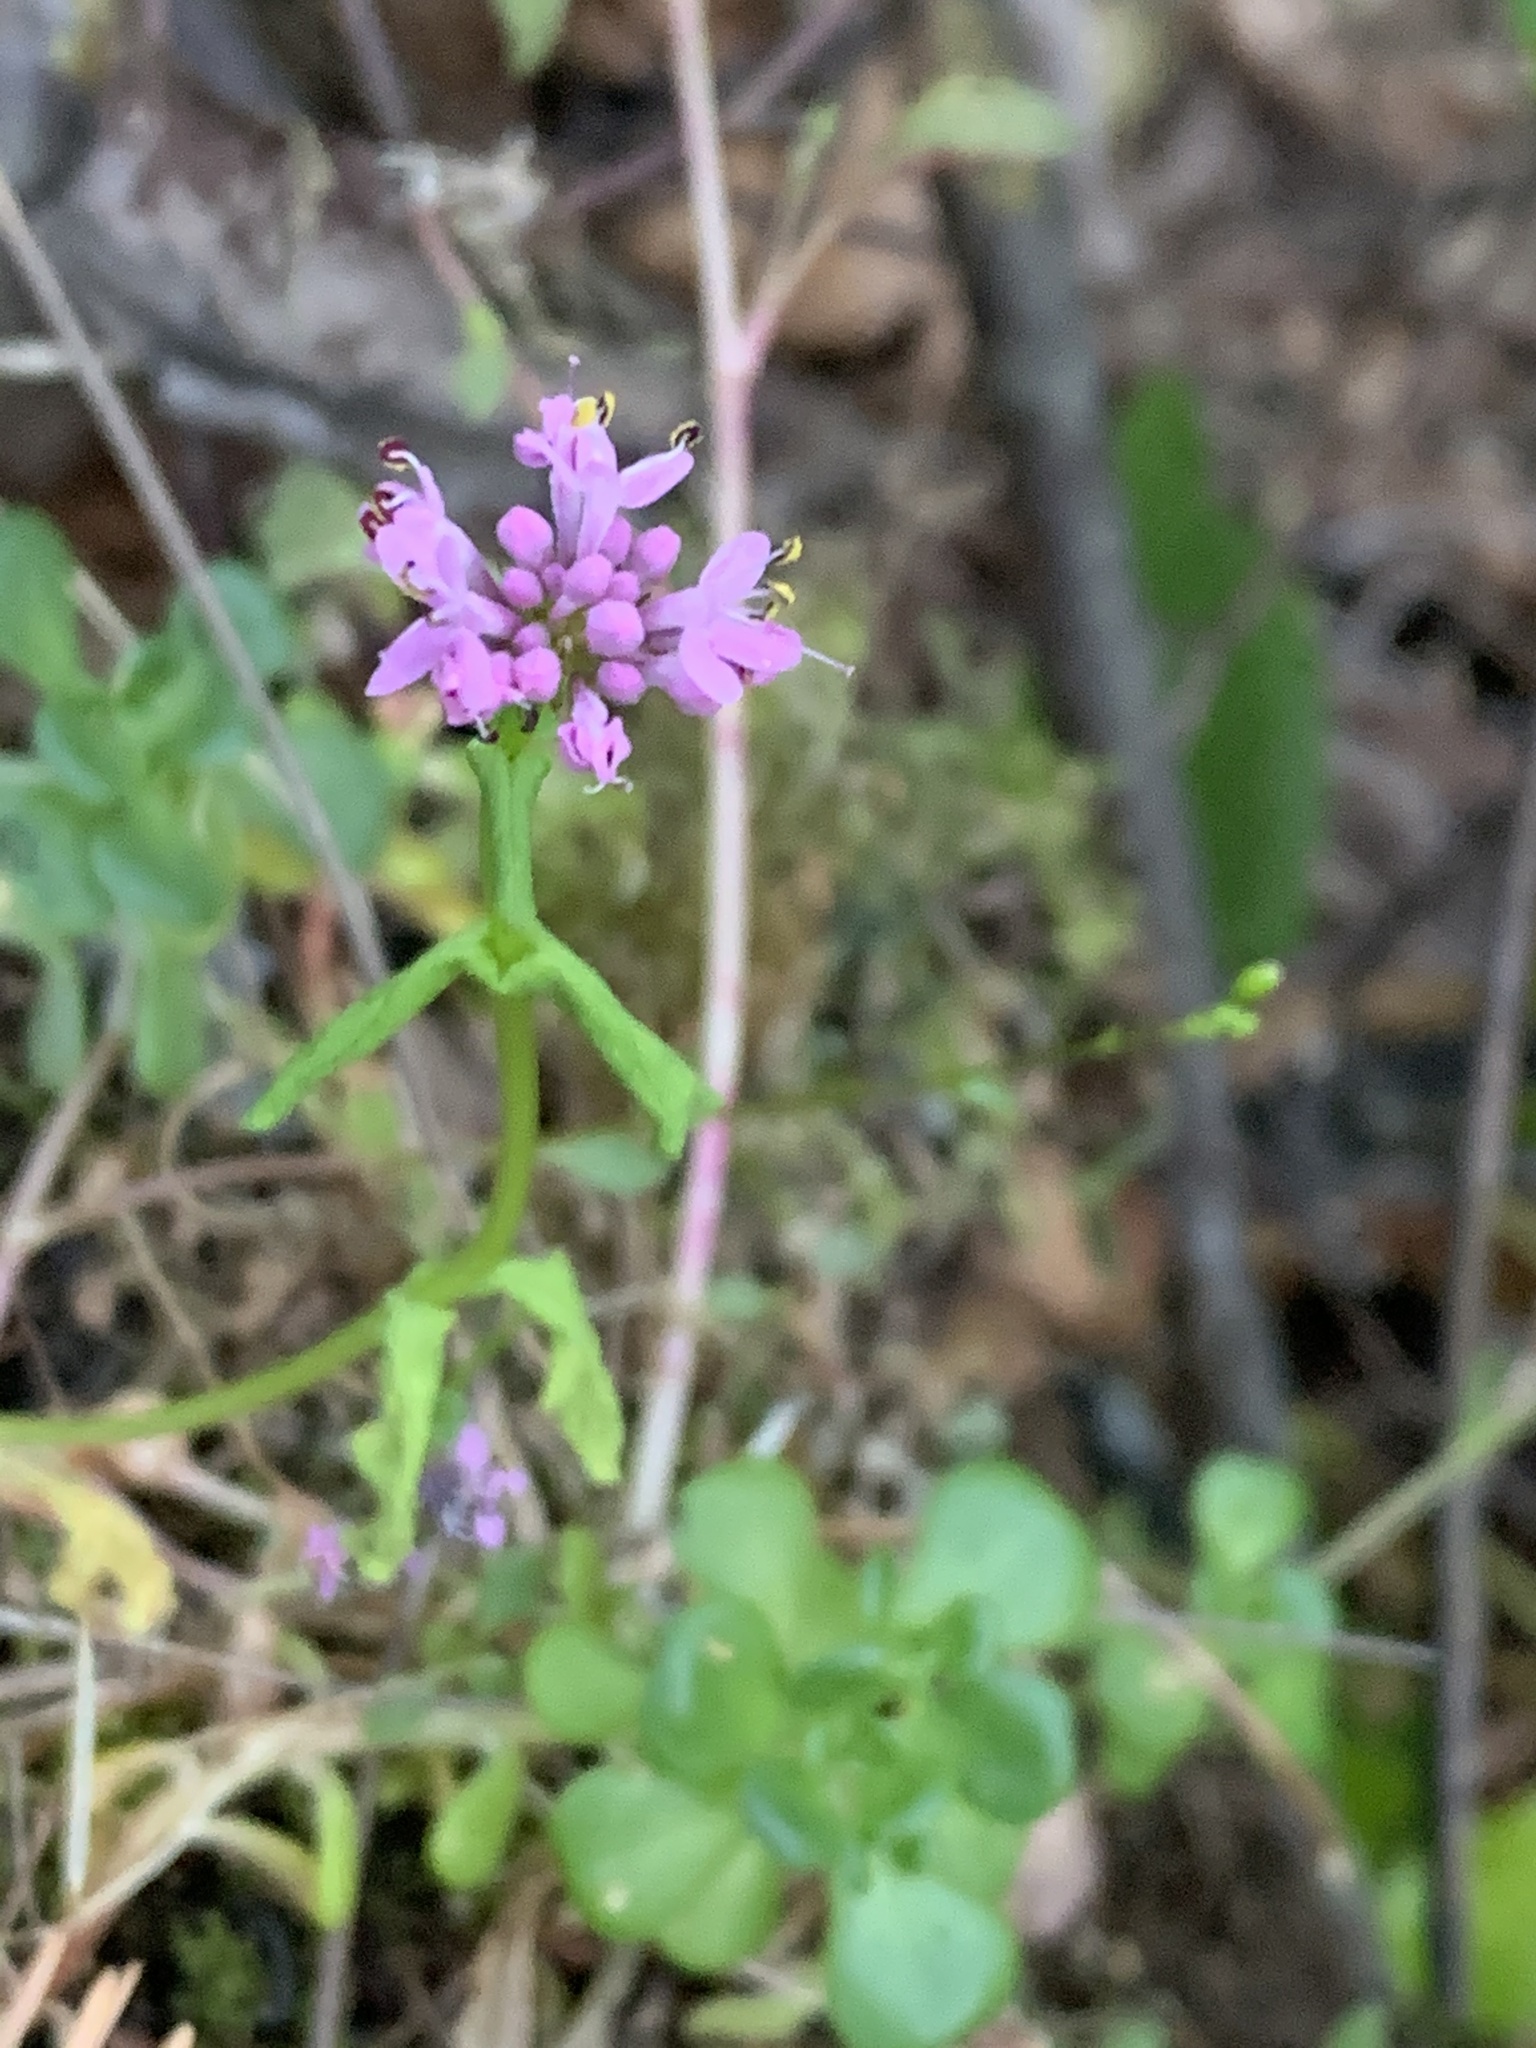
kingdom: Plantae
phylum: Tracheophyta
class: Magnoliopsida
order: Dipsacales
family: Caprifoliaceae
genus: Plectritis
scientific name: Plectritis congesta
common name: Pink plectritis
